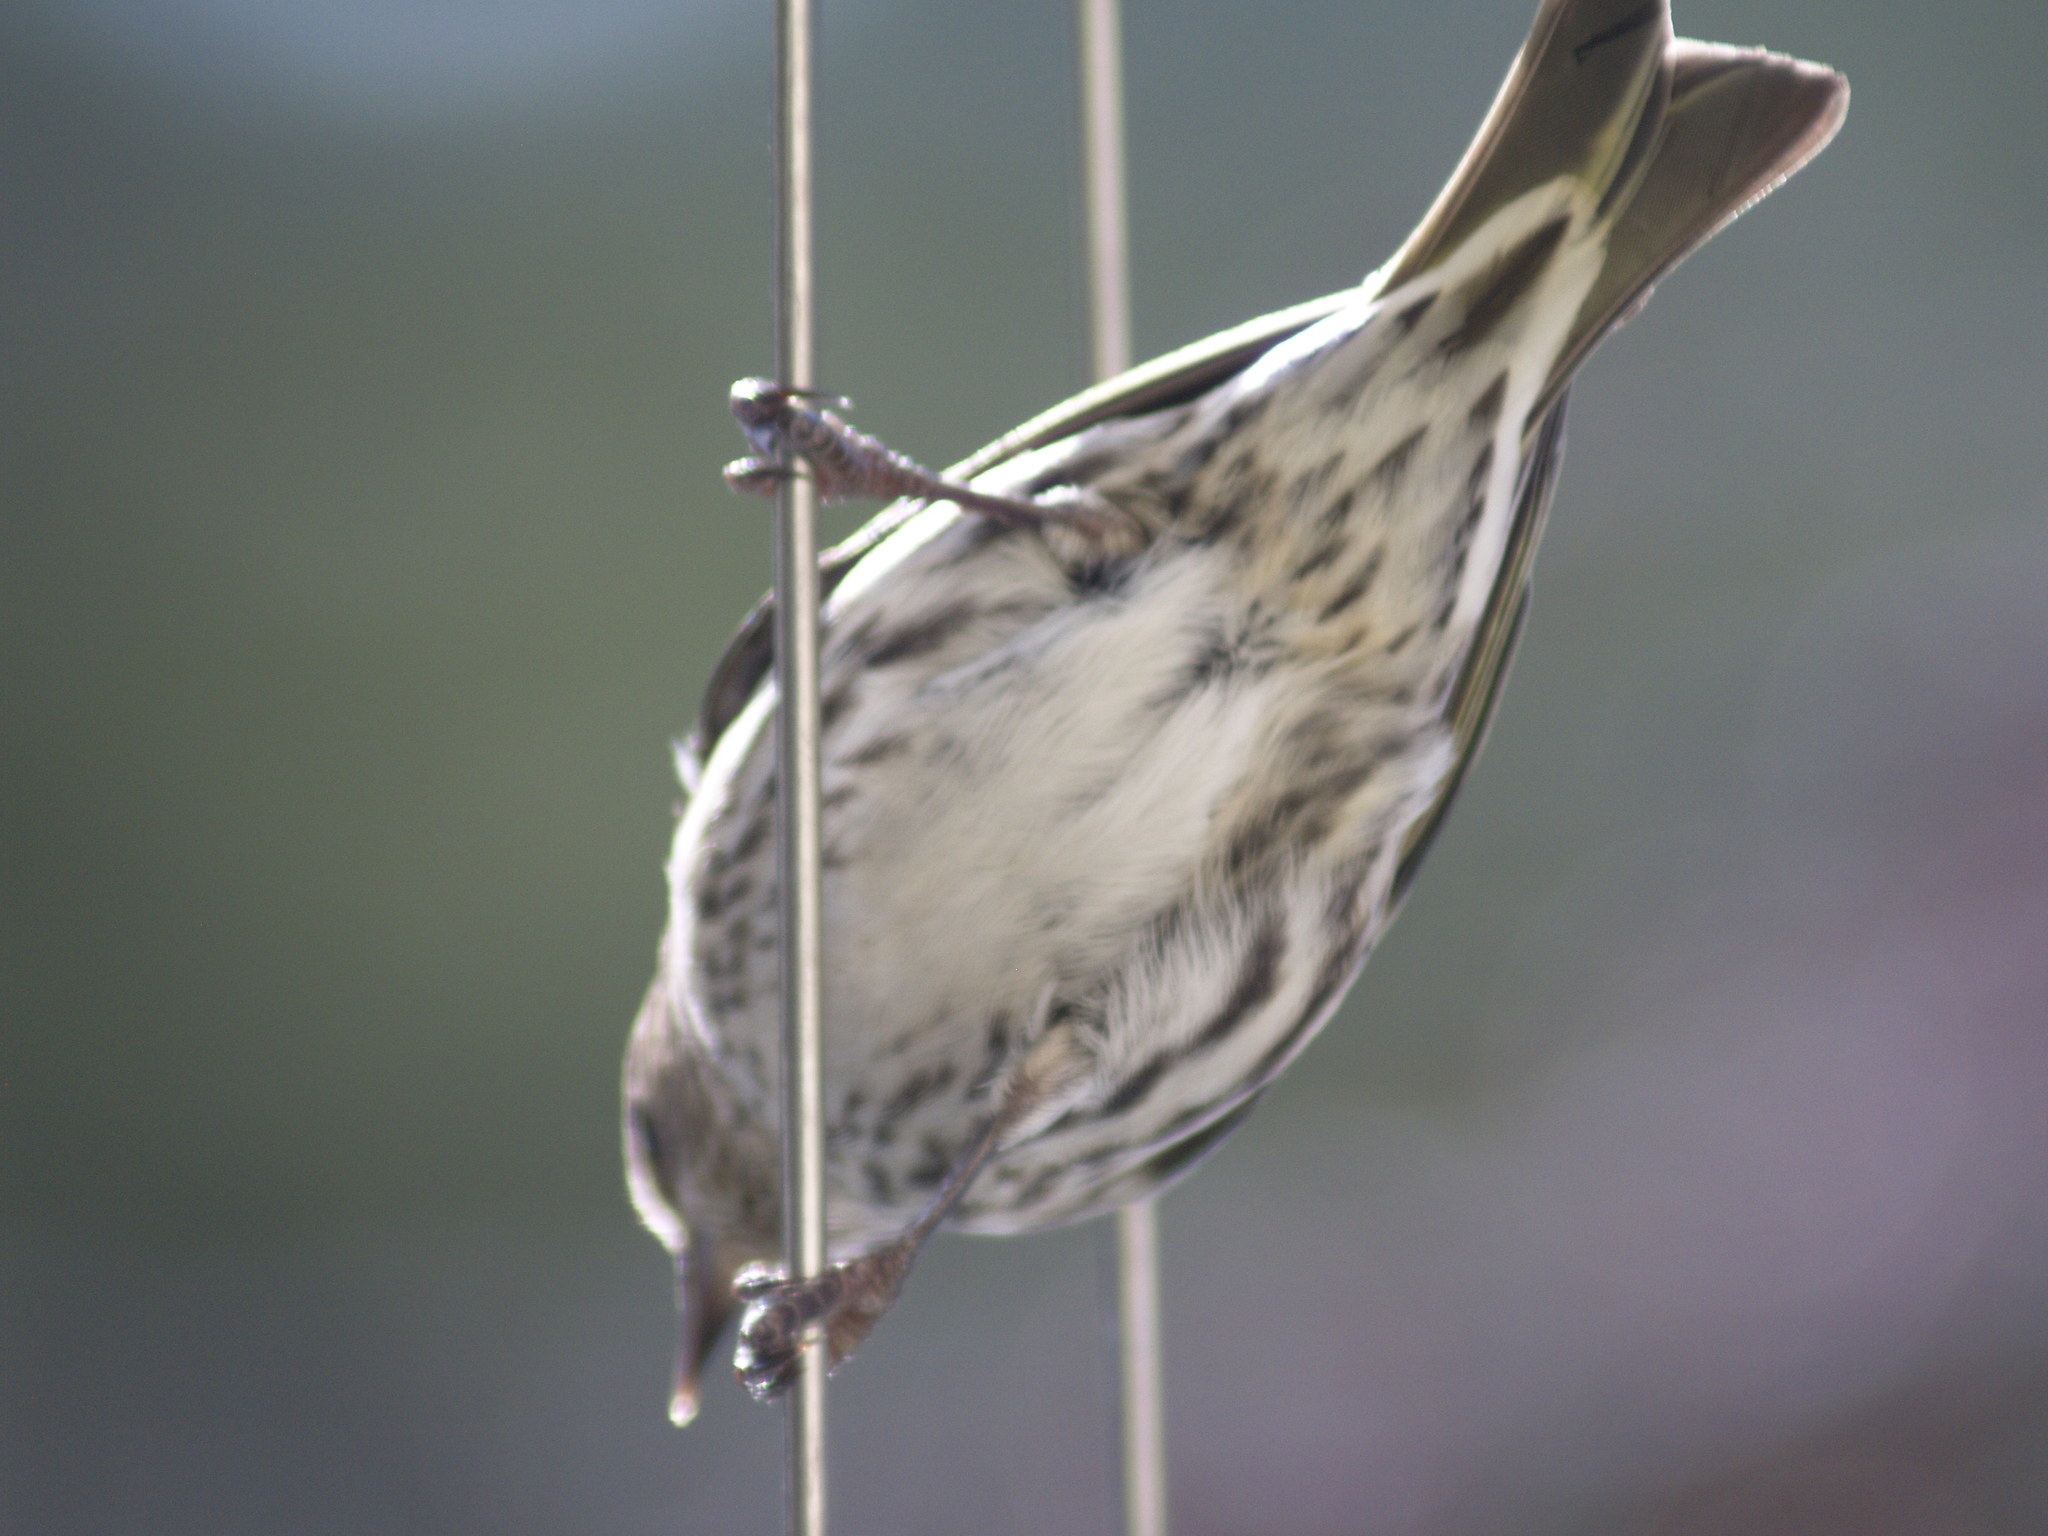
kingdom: Animalia
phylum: Chordata
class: Aves
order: Passeriformes
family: Fringillidae
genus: Spinus
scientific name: Spinus pinus
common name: Pine siskin
